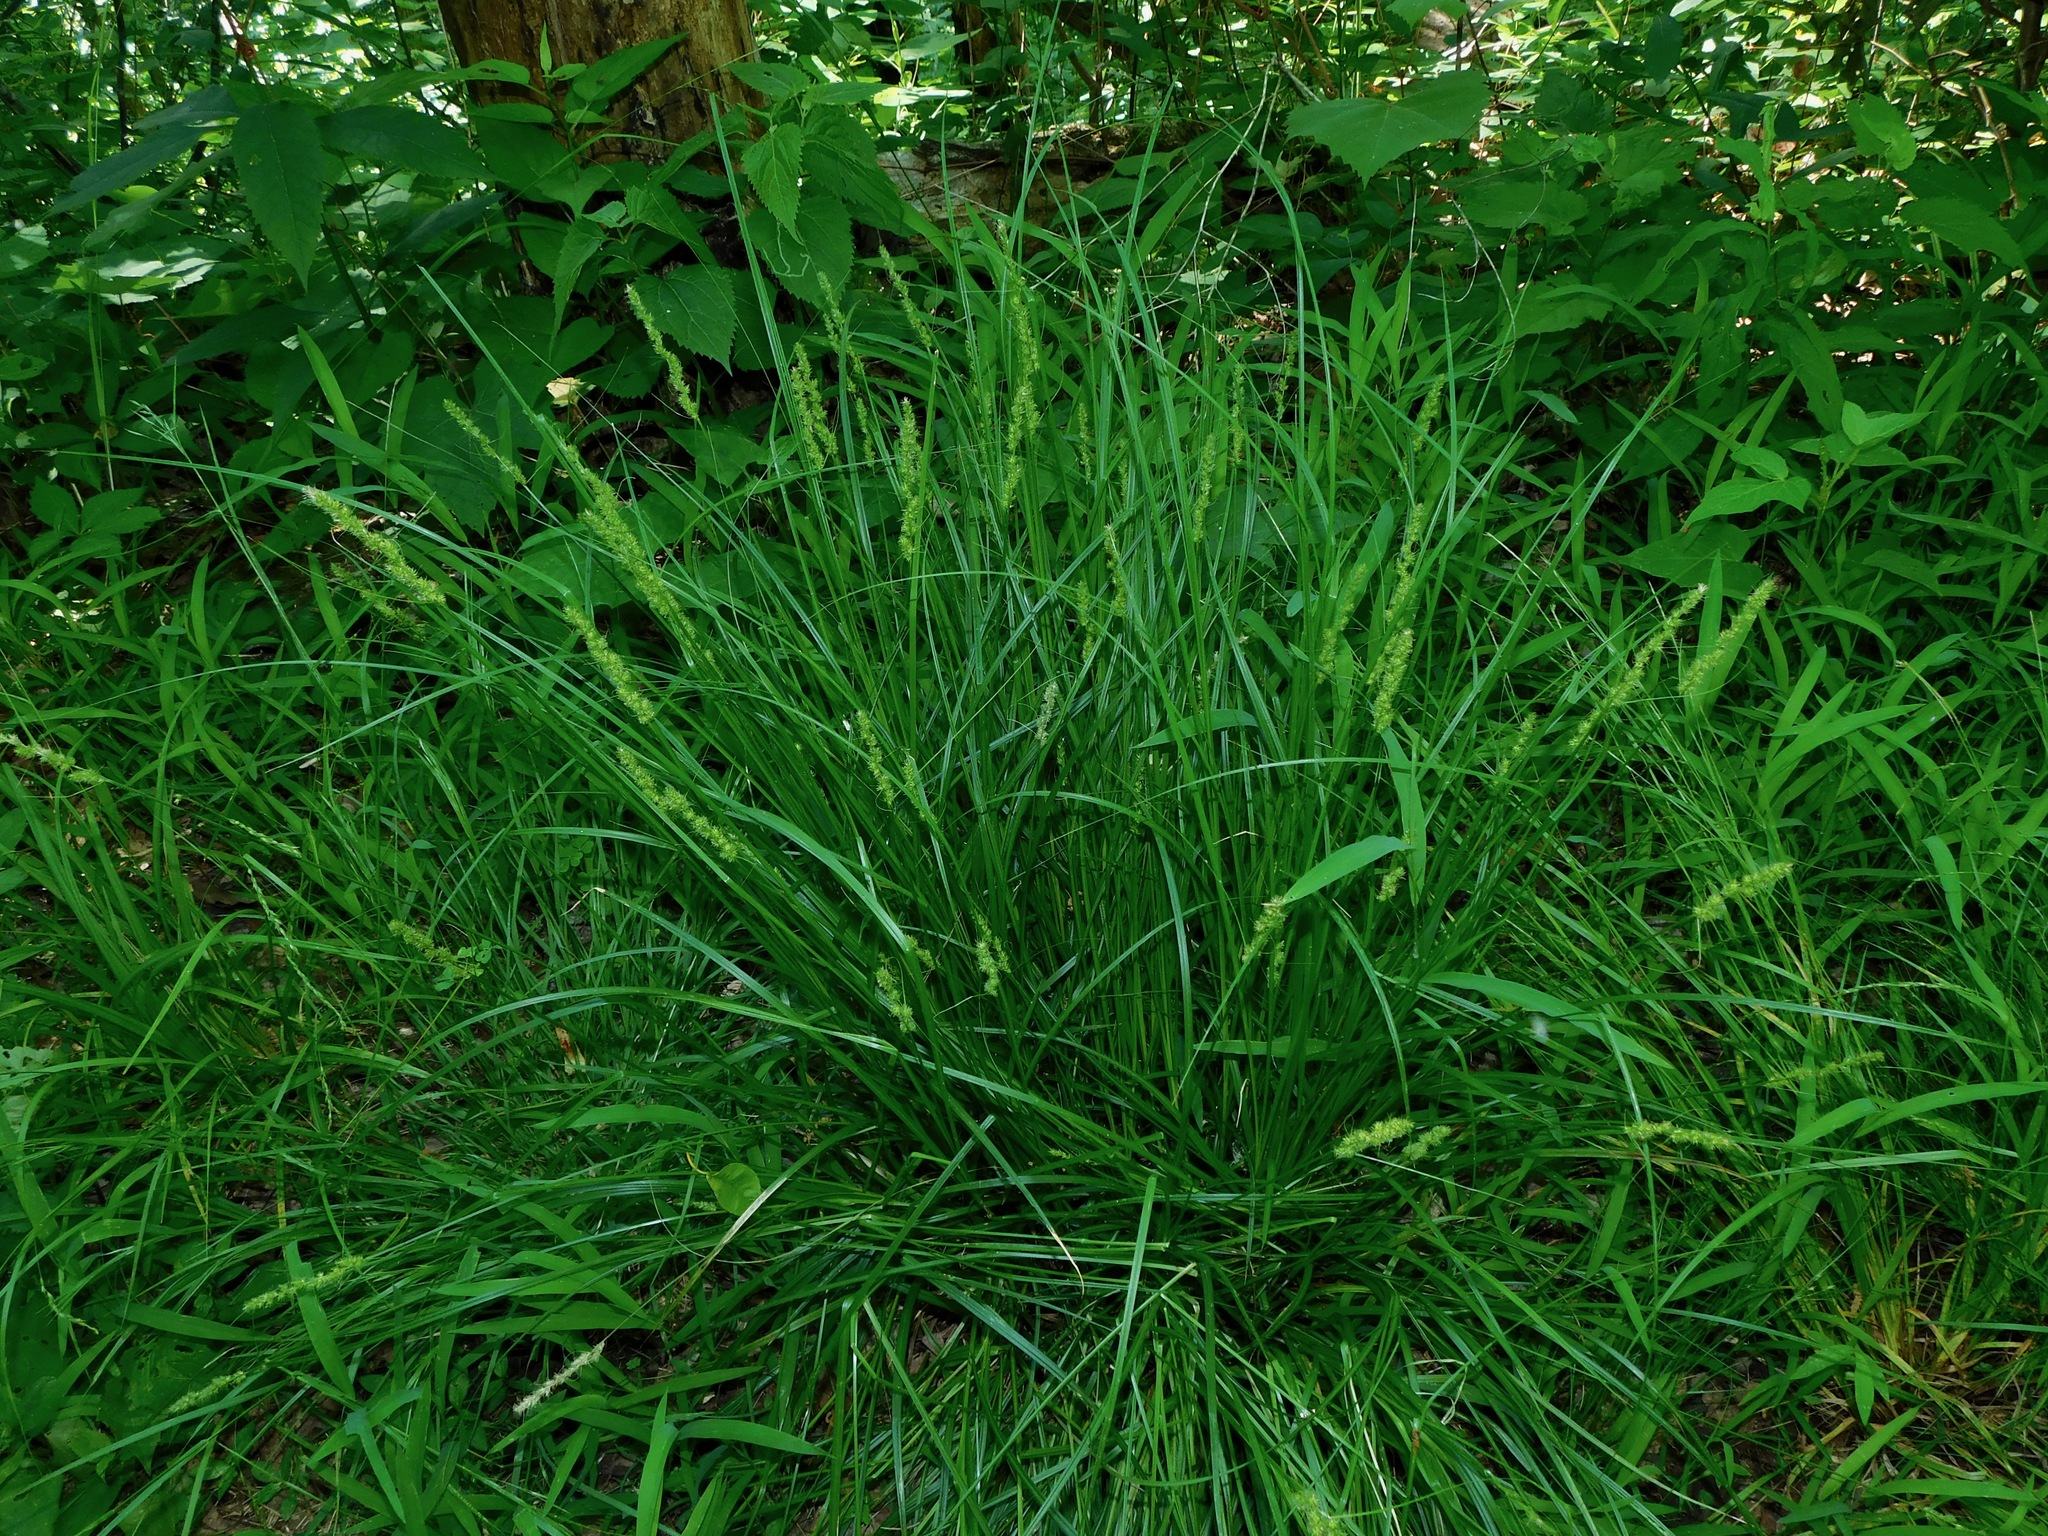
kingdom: Plantae
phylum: Tracheophyta
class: Liliopsida
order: Poales
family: Cyperaceae
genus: Carex
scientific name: Carex vulpinoidea
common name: American fox-sedge
